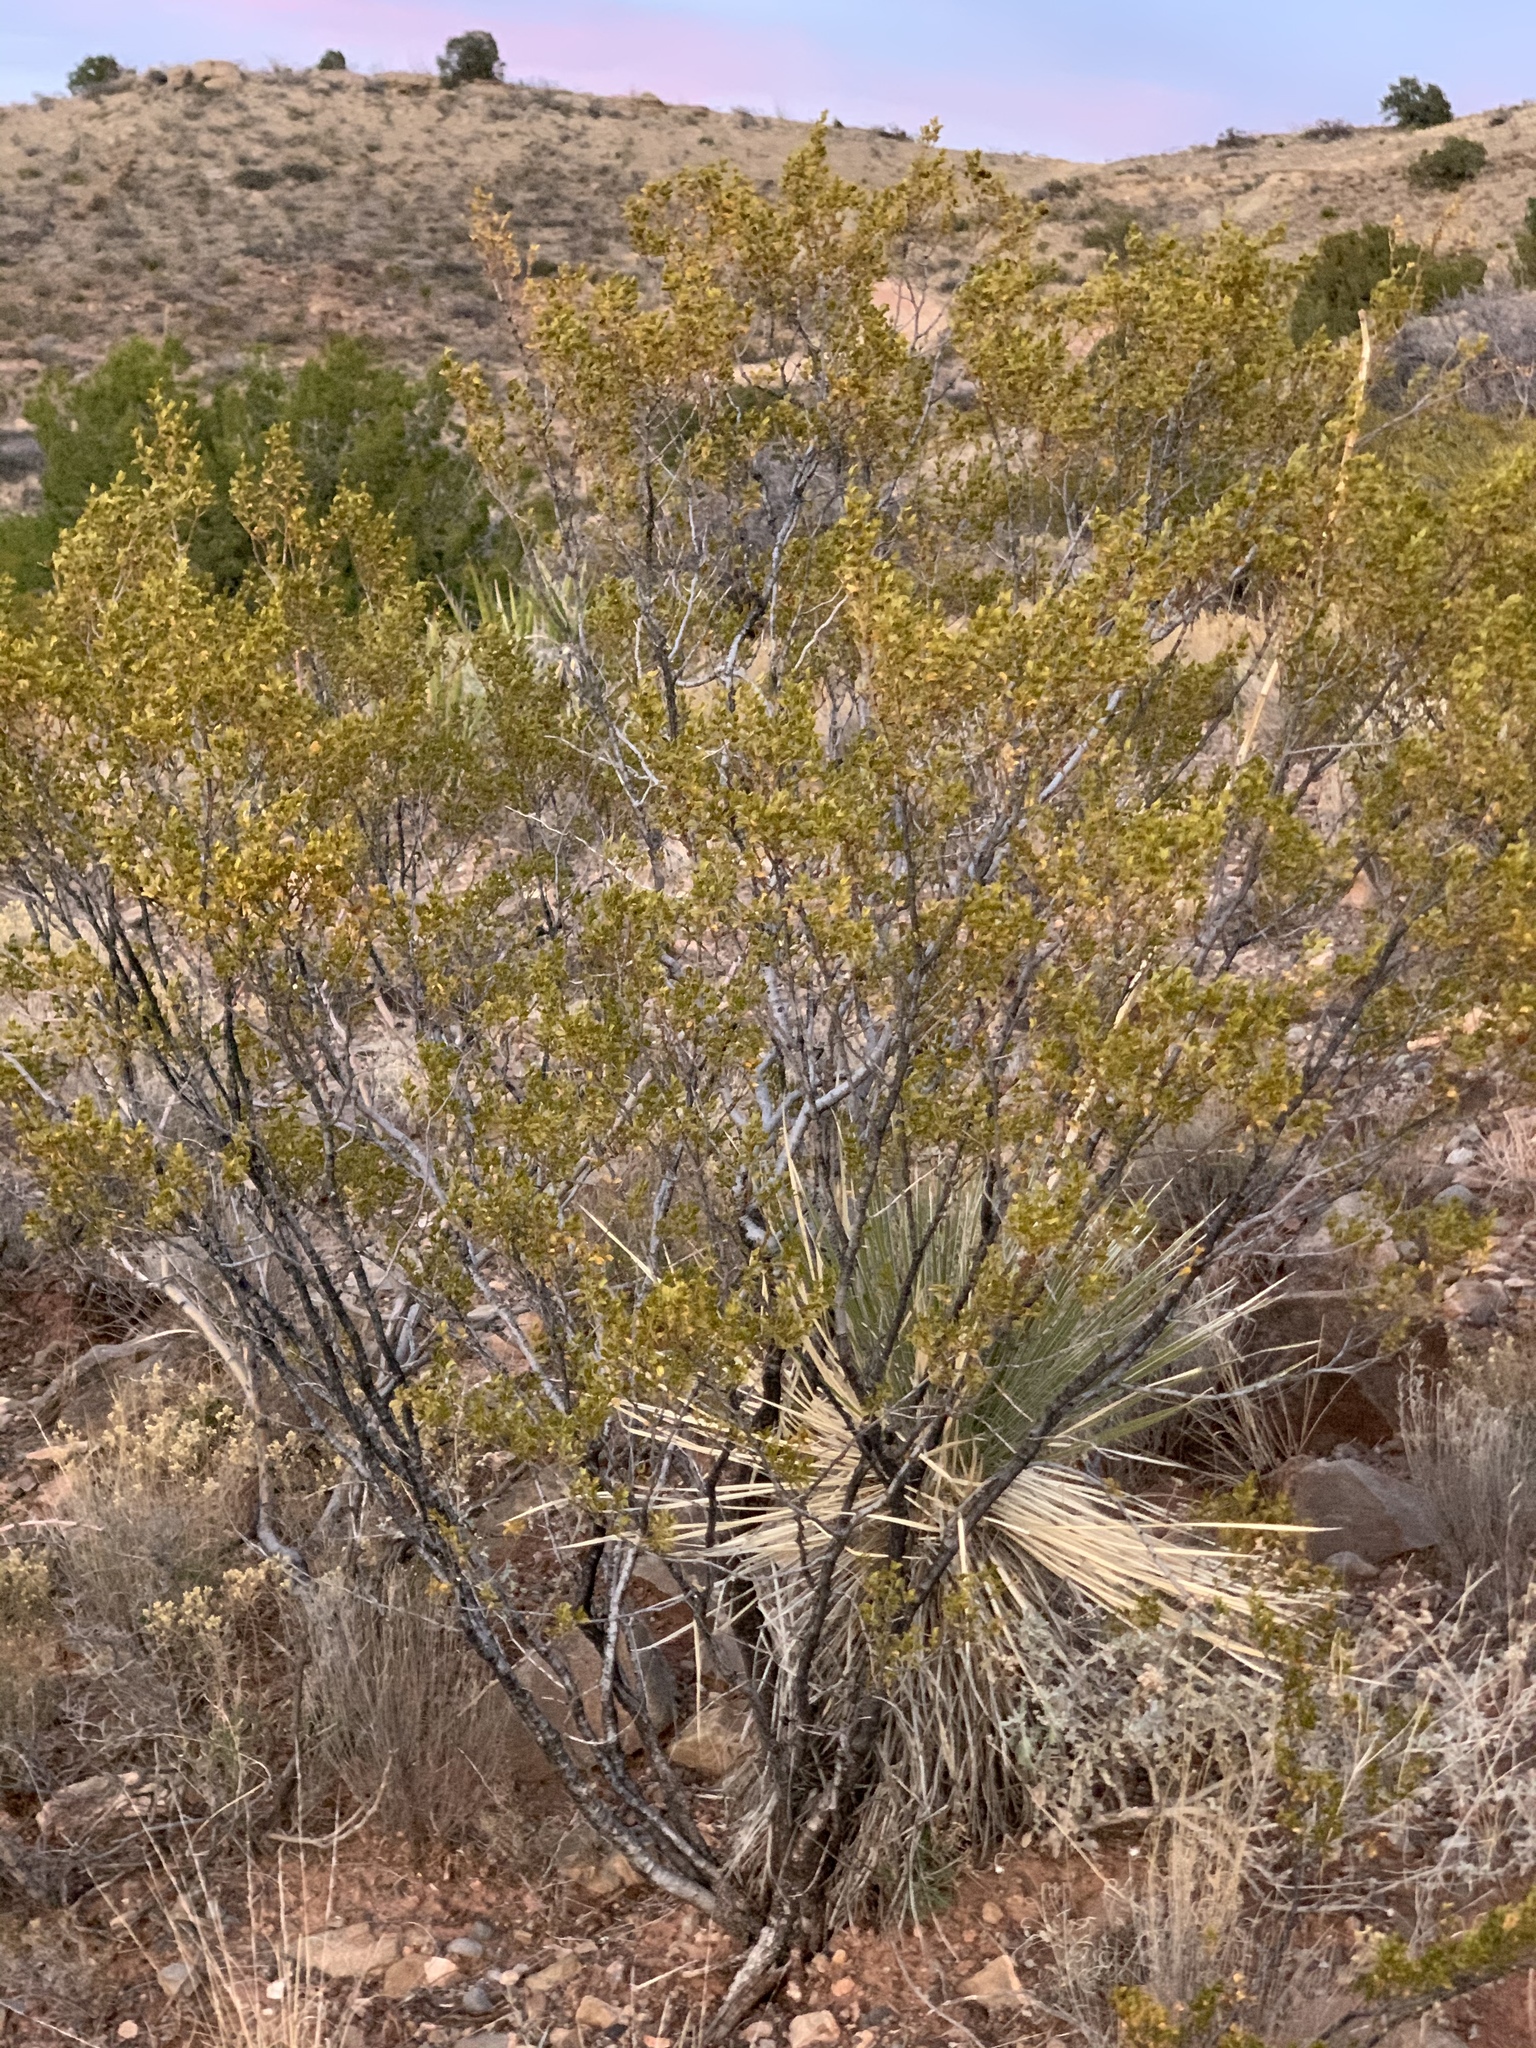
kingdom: Plantae
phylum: Tracheophyta
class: Magnoliopsida
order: Zygophyllales
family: Zygophyllaceae
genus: Larrea
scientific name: Larrea tridentata
